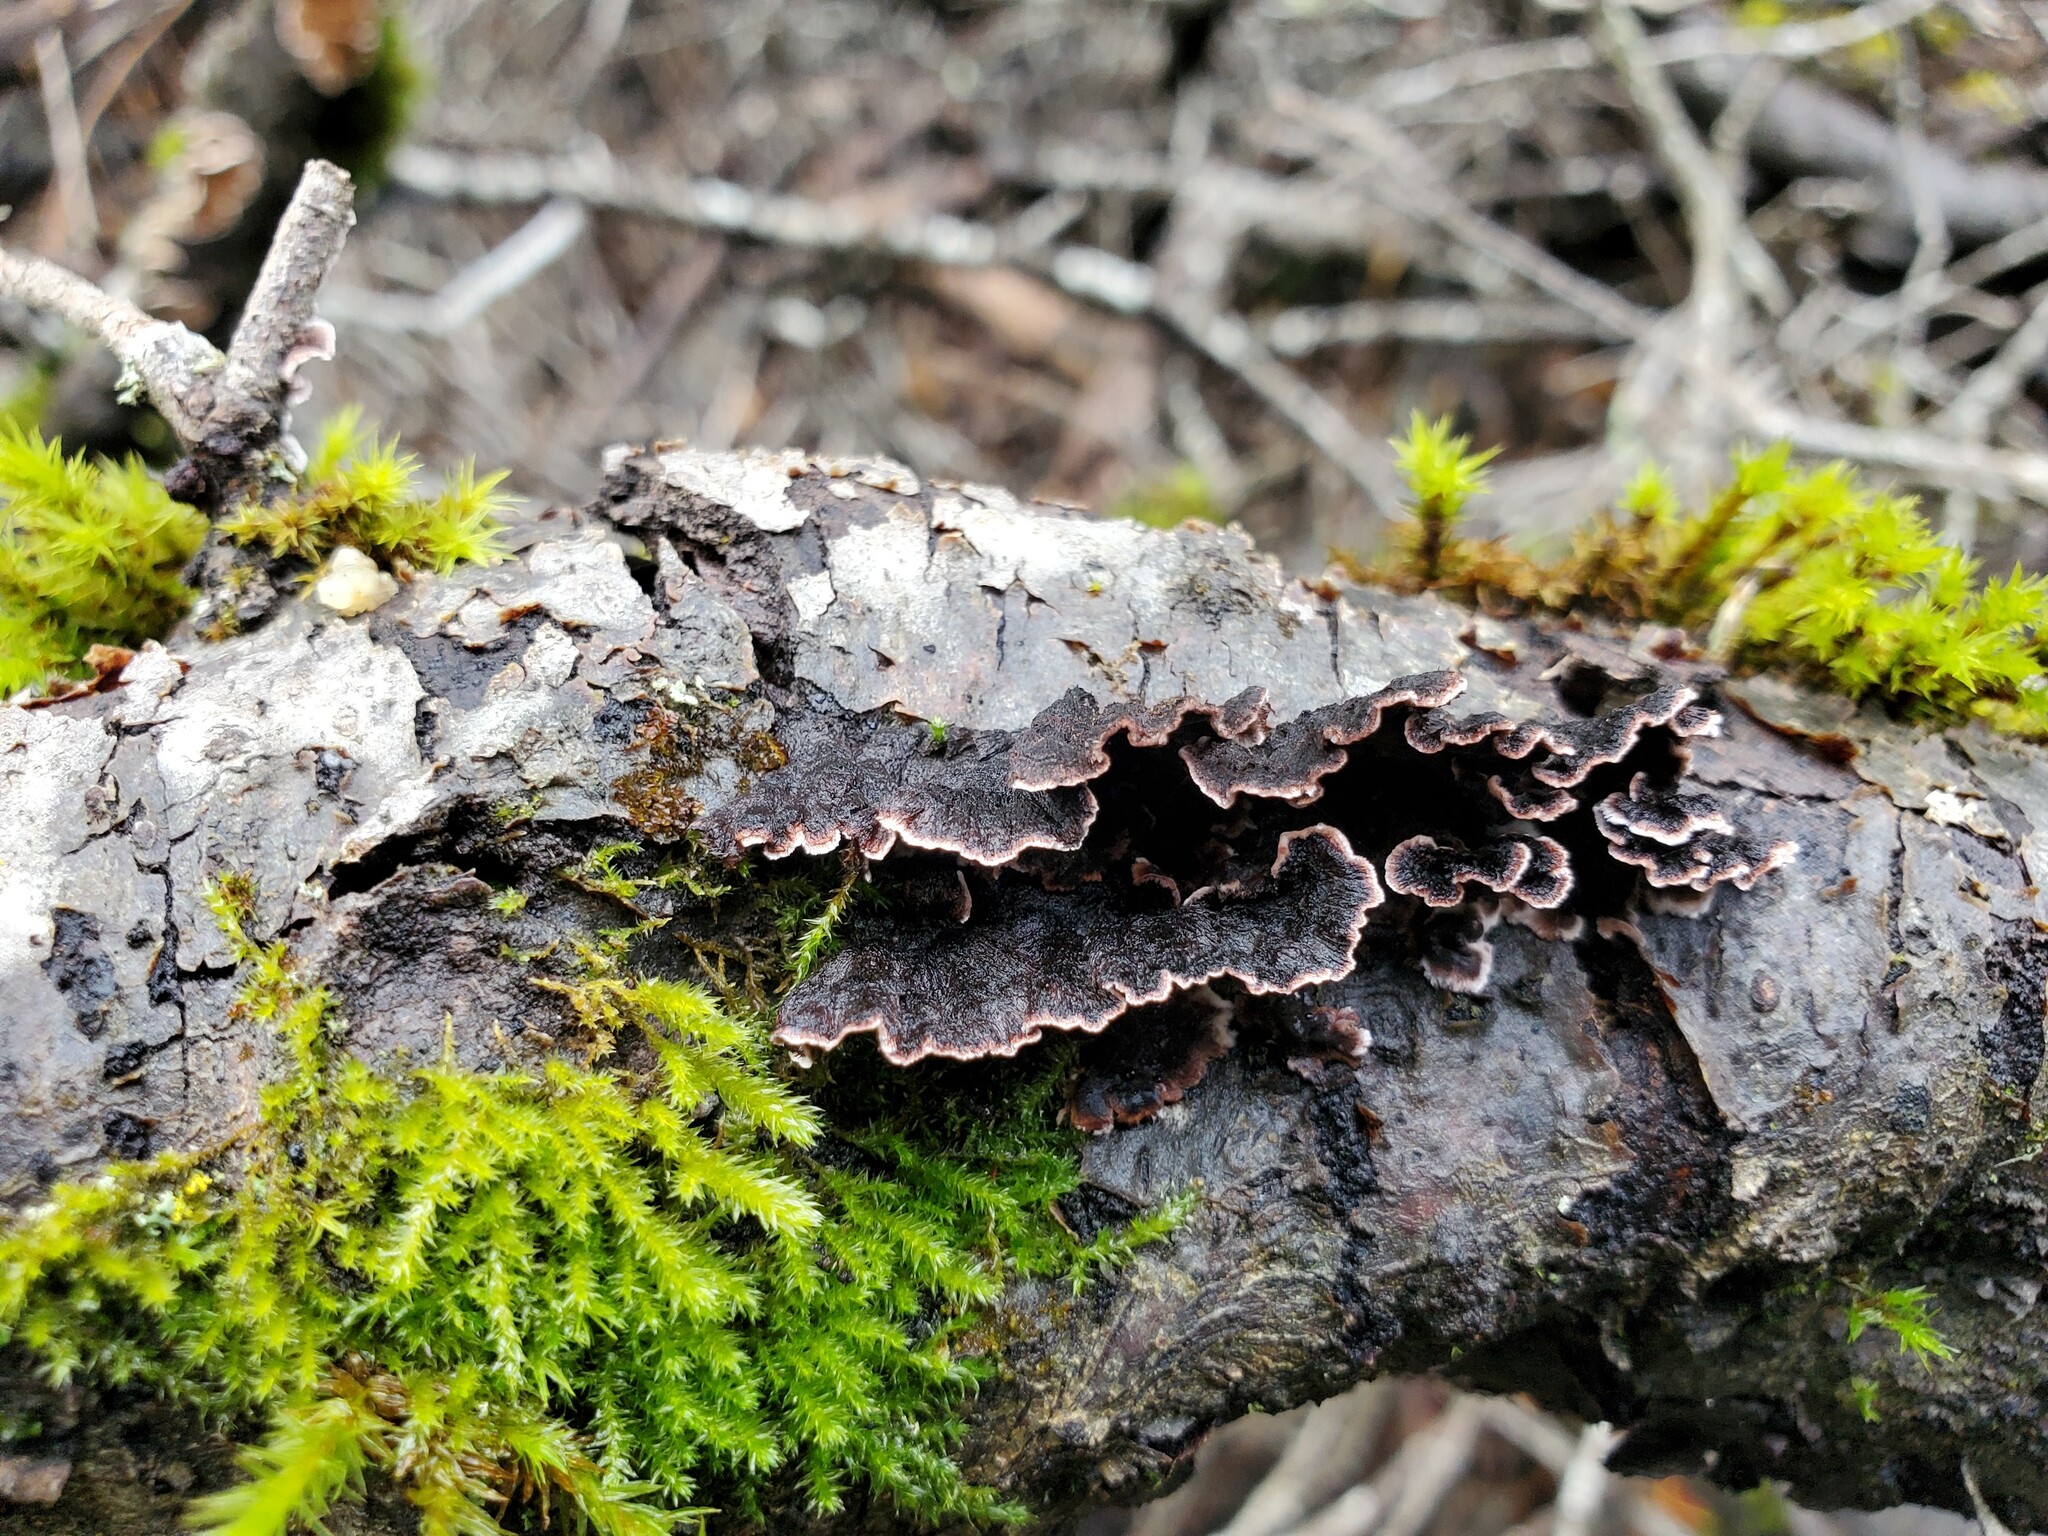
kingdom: Fungi
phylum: Basidiomycota
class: Agaricomycetes
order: Russulales
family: Peniophoraceae
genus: Peniophora
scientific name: Peniophora albobadia
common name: Giraffe spots
